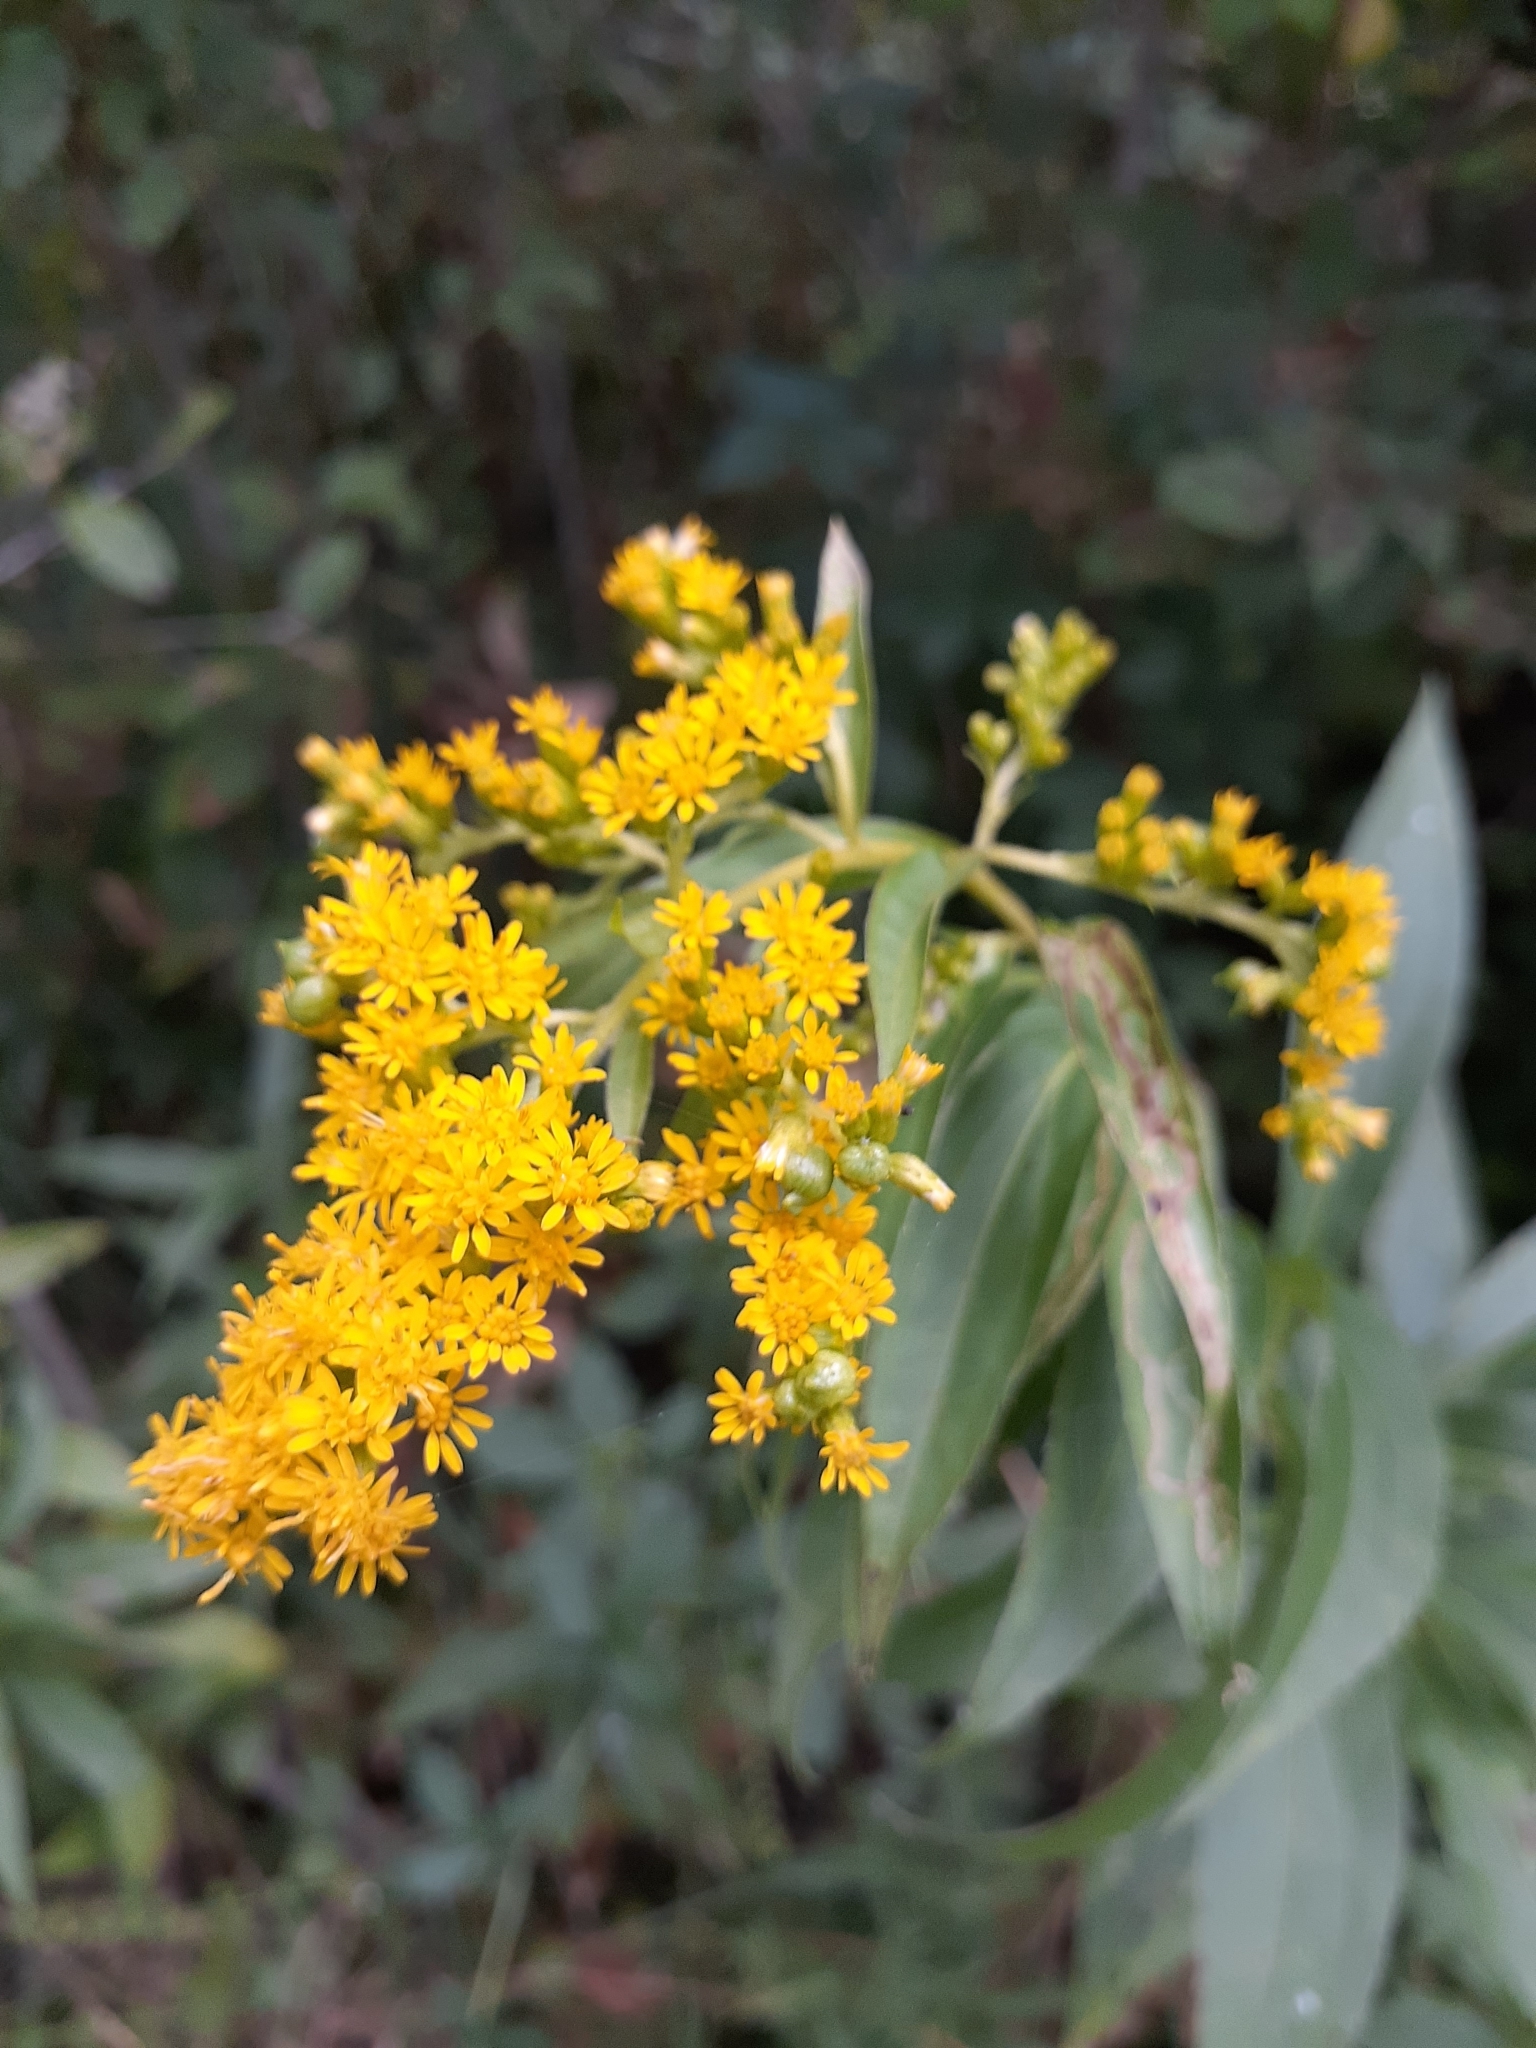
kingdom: Plantae
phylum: Tracheophyta
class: Magnoliopsida
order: Asterales
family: Asteraceae
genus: Solidago
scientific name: Solidago gigantea
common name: Giant goldenrod
